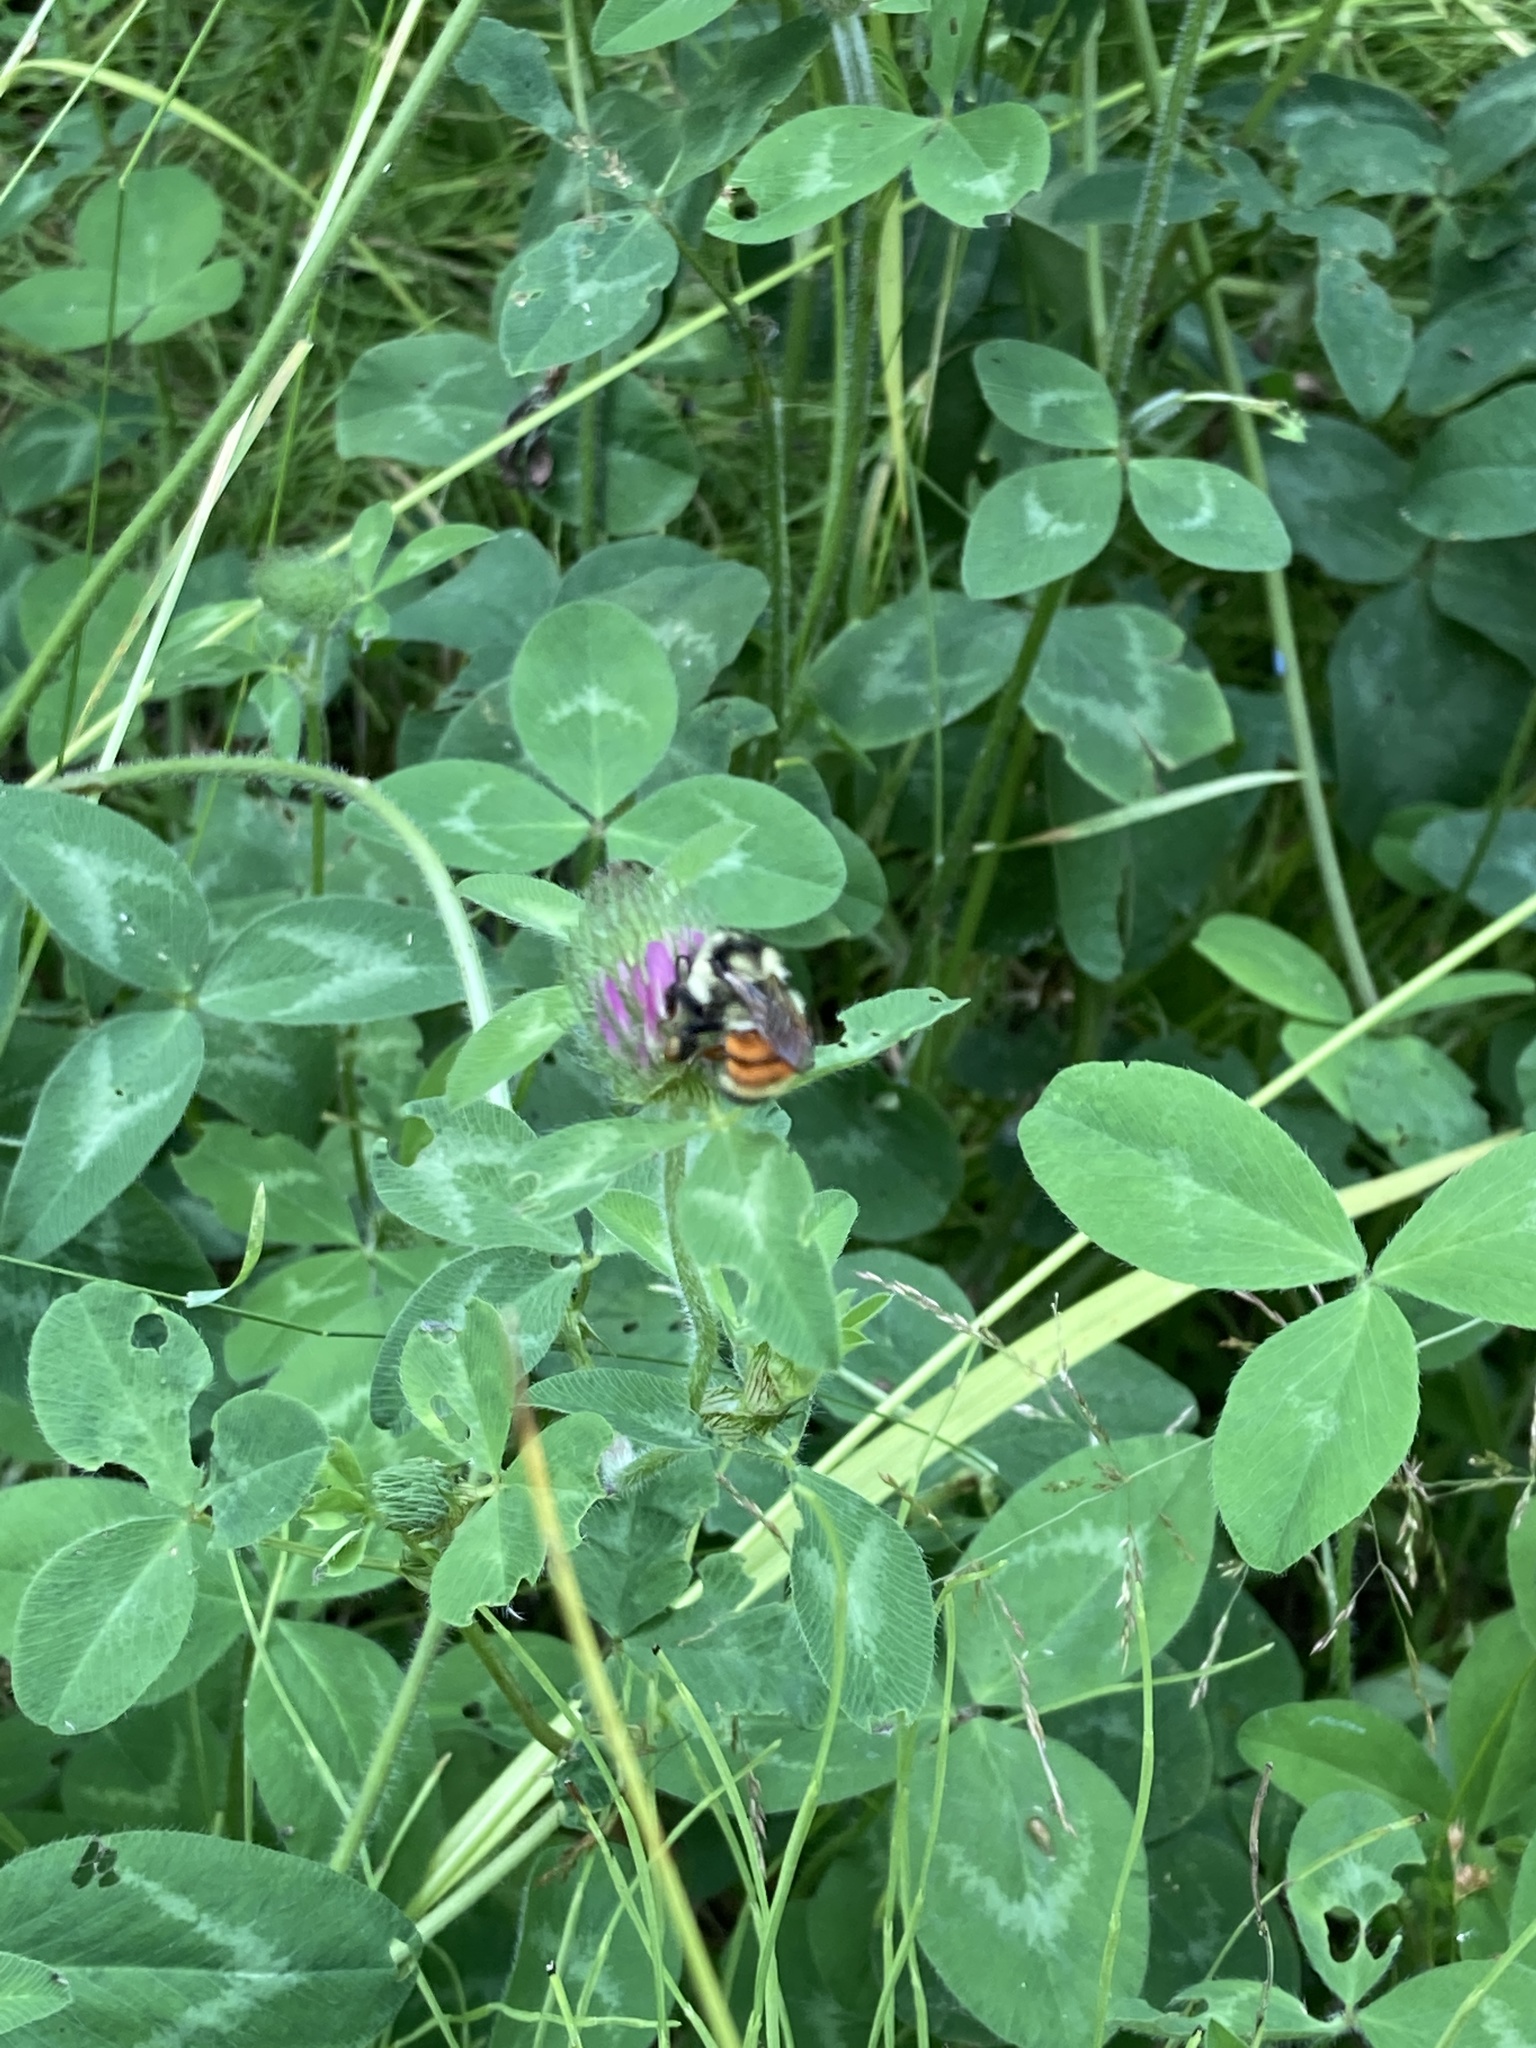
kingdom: Animalia
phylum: Arthropoda
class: Insecta
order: Hymenoptera
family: Apidae
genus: Bombus
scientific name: Bombus ternarius
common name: Tri-colored bumble bee
